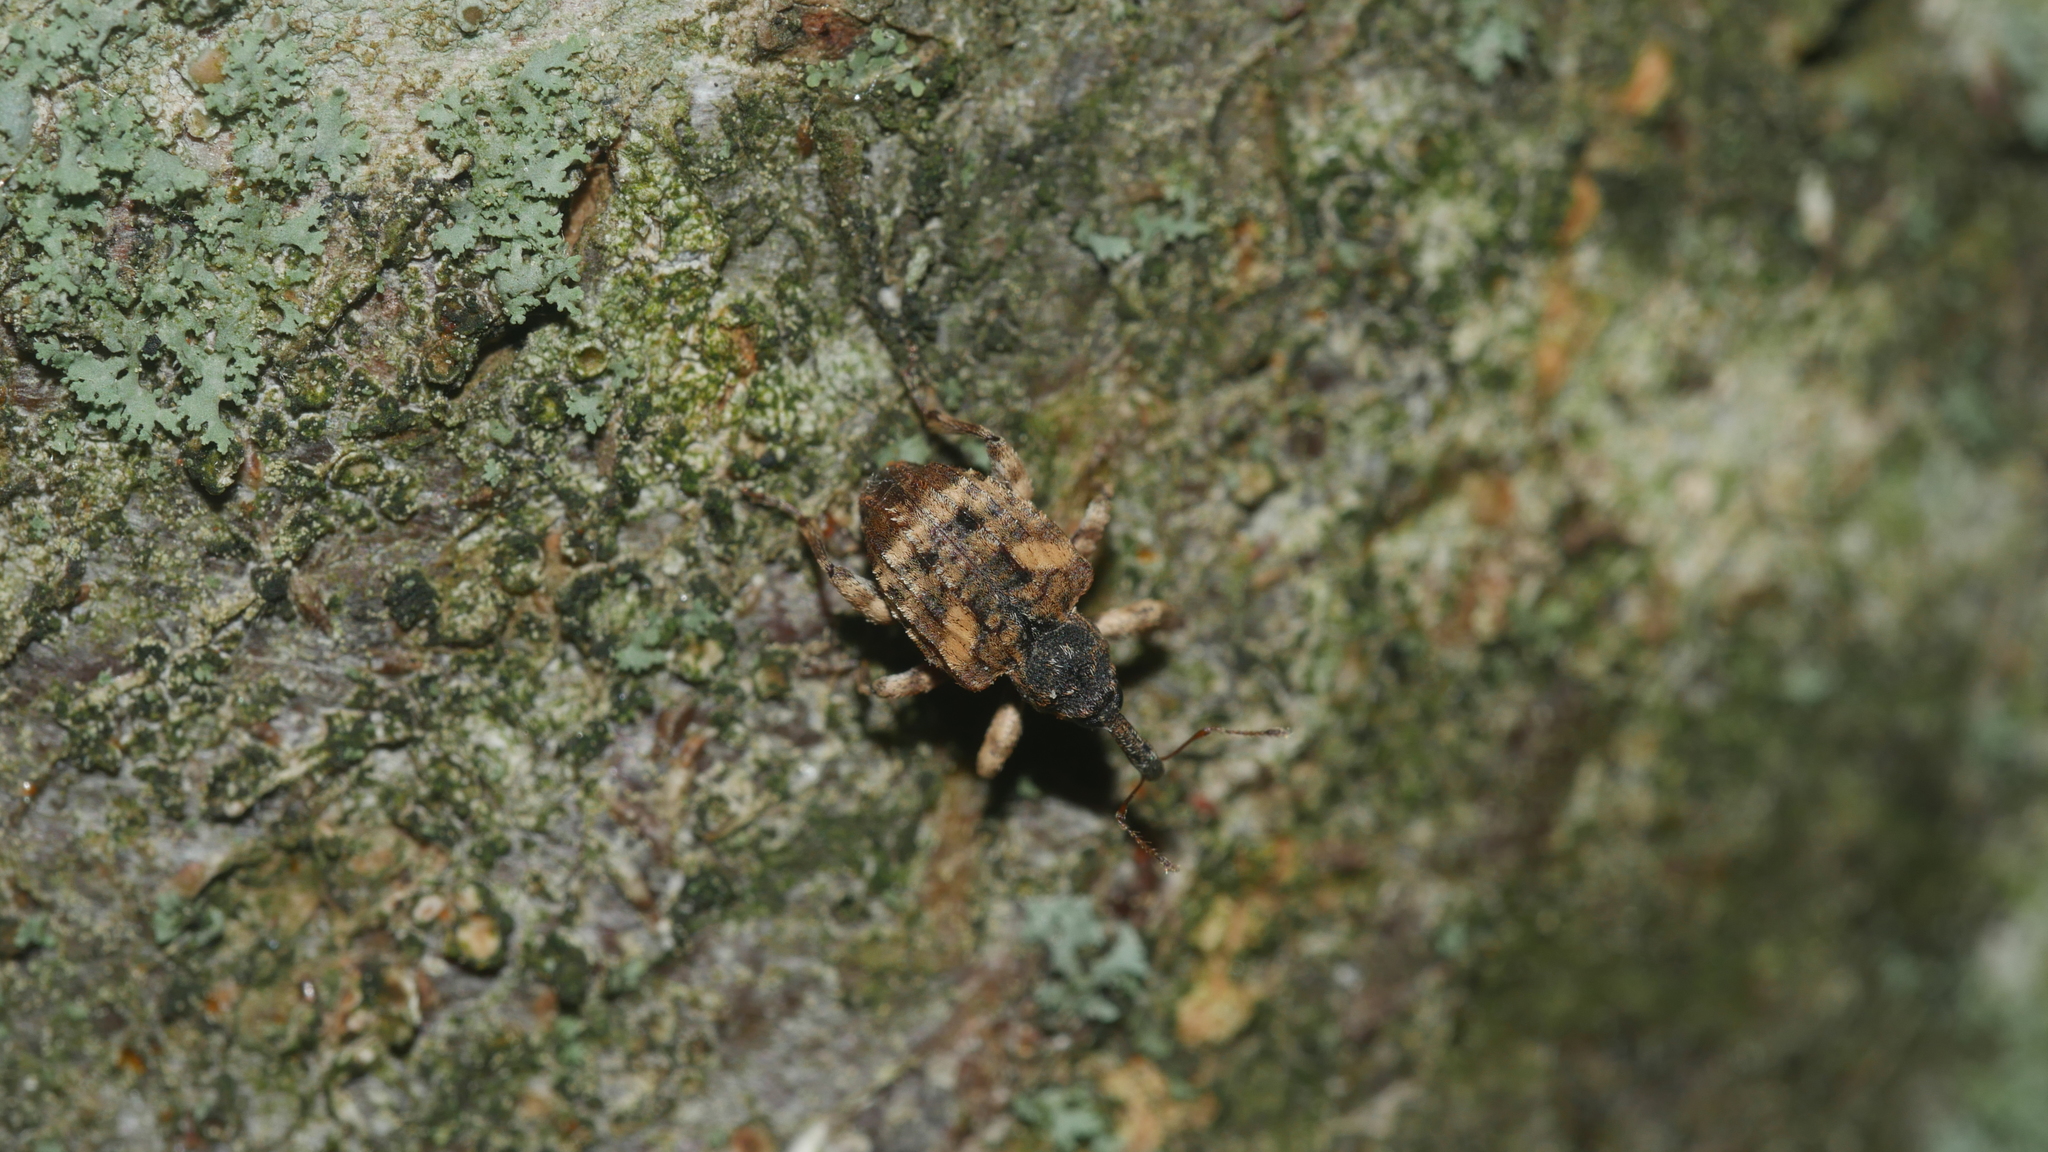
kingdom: Animalia
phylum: Arthropoda
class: Insecta
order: Coleoptera
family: Curculionidae
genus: Conotrachelus
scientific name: Conotrachelus anaglypticus
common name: Cambium curculio
